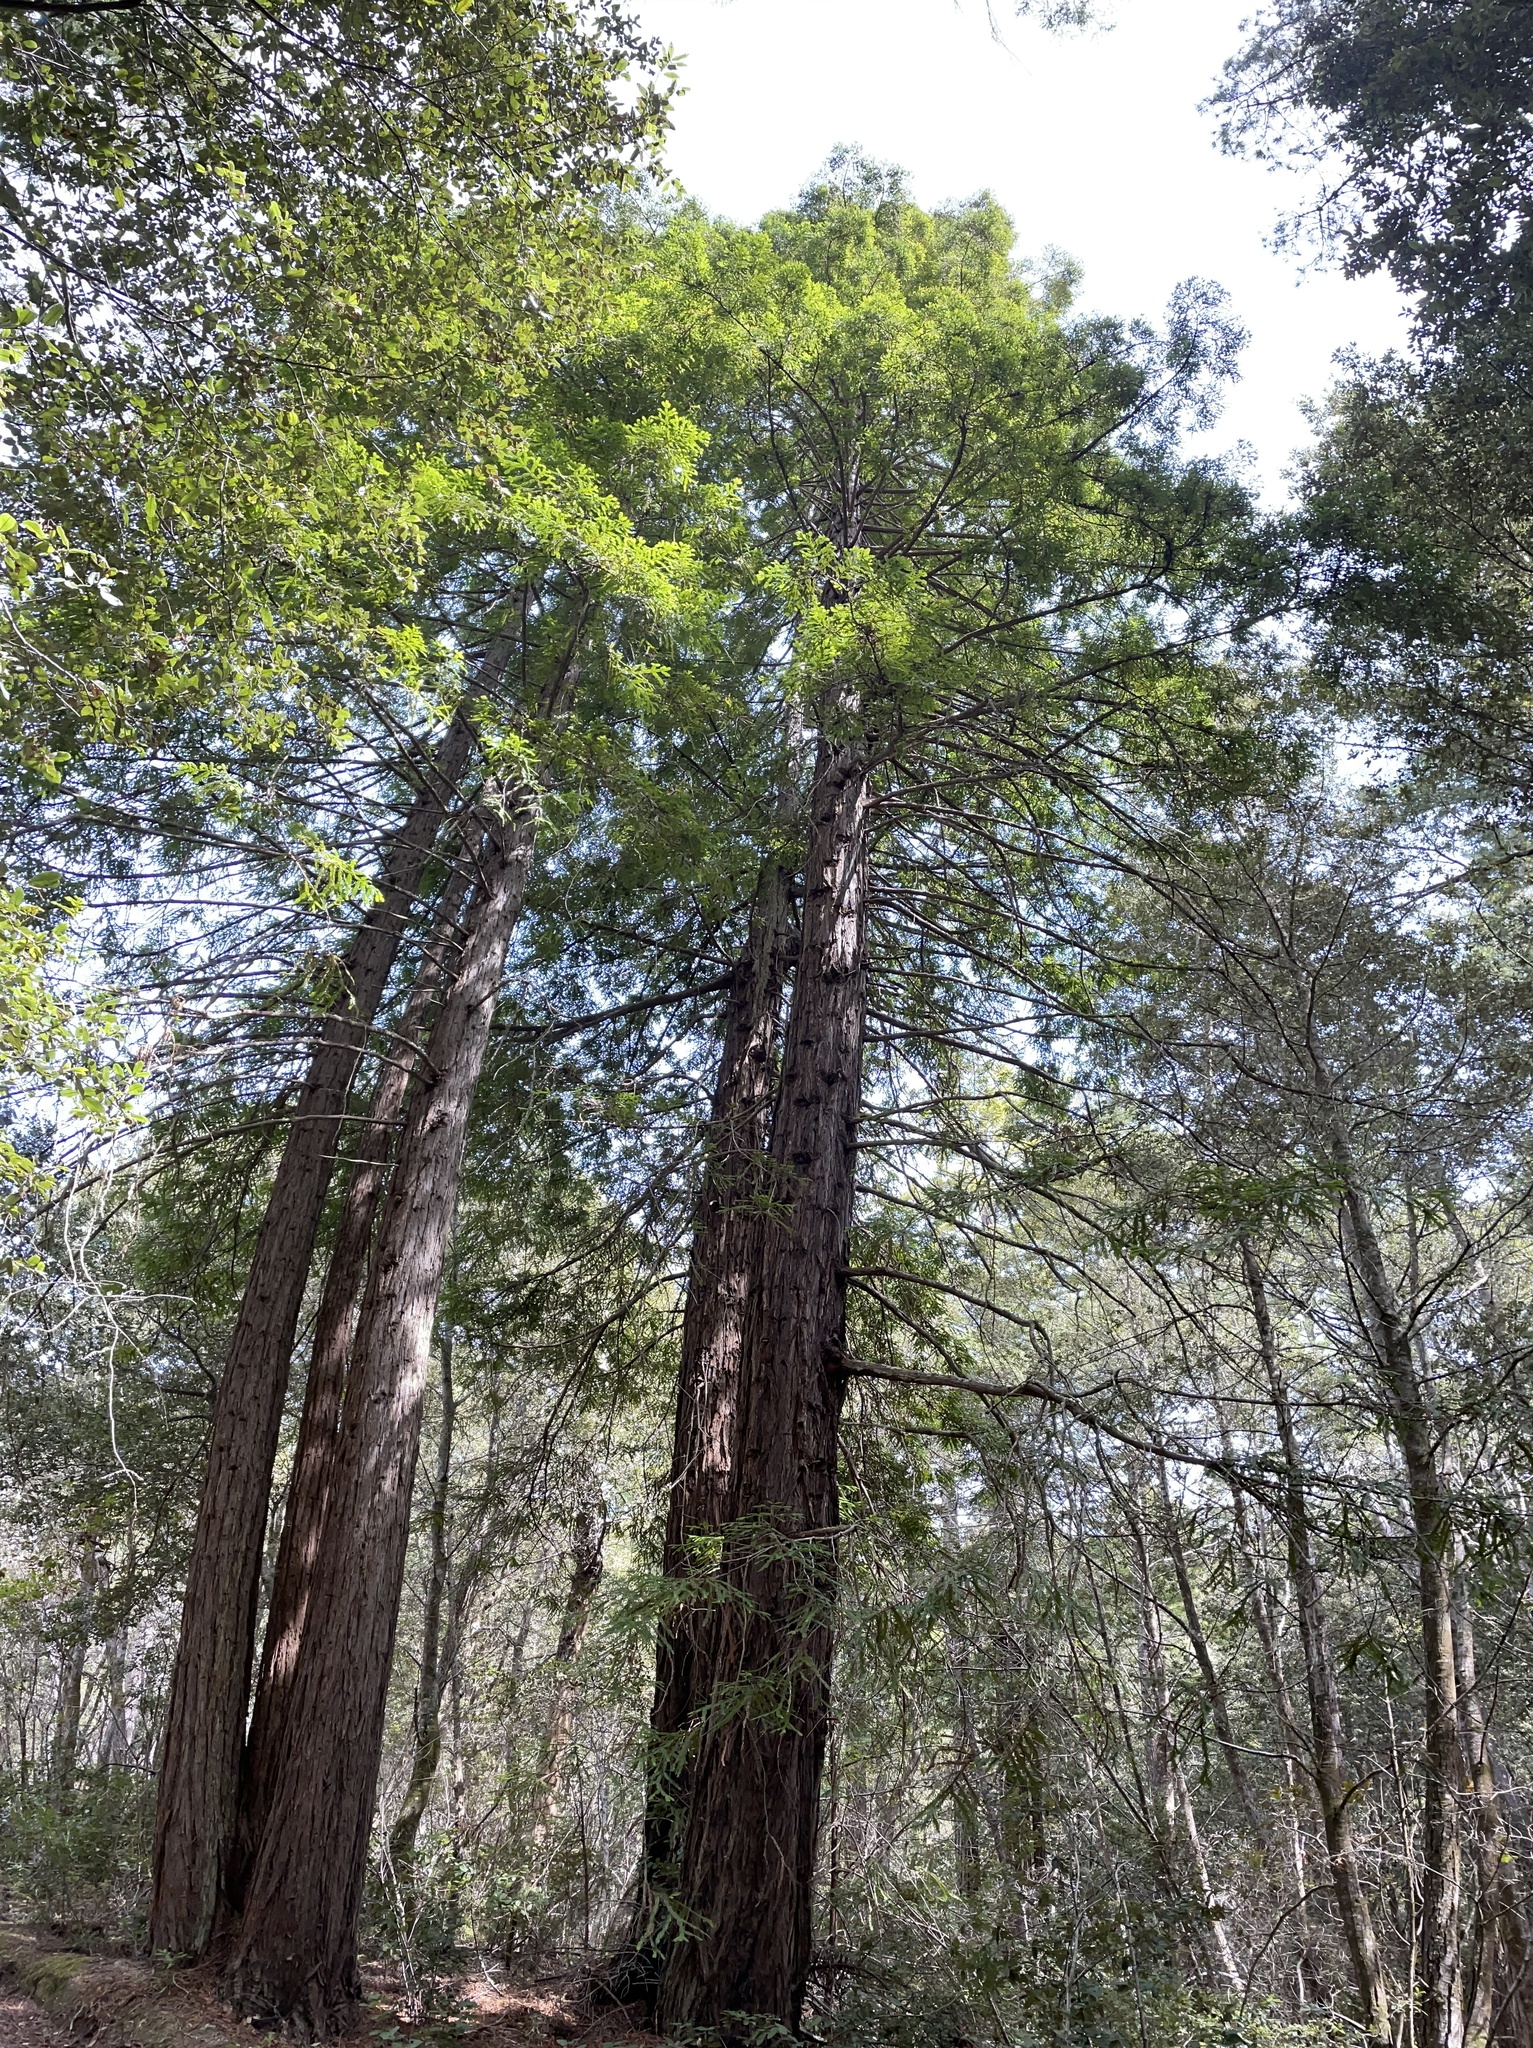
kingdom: Plantae
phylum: Tracheophyta
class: Pinopsida
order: Pinales
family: Cupressaceae
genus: Sequoia
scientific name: Sequoia sempervirens
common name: Coast redwood
